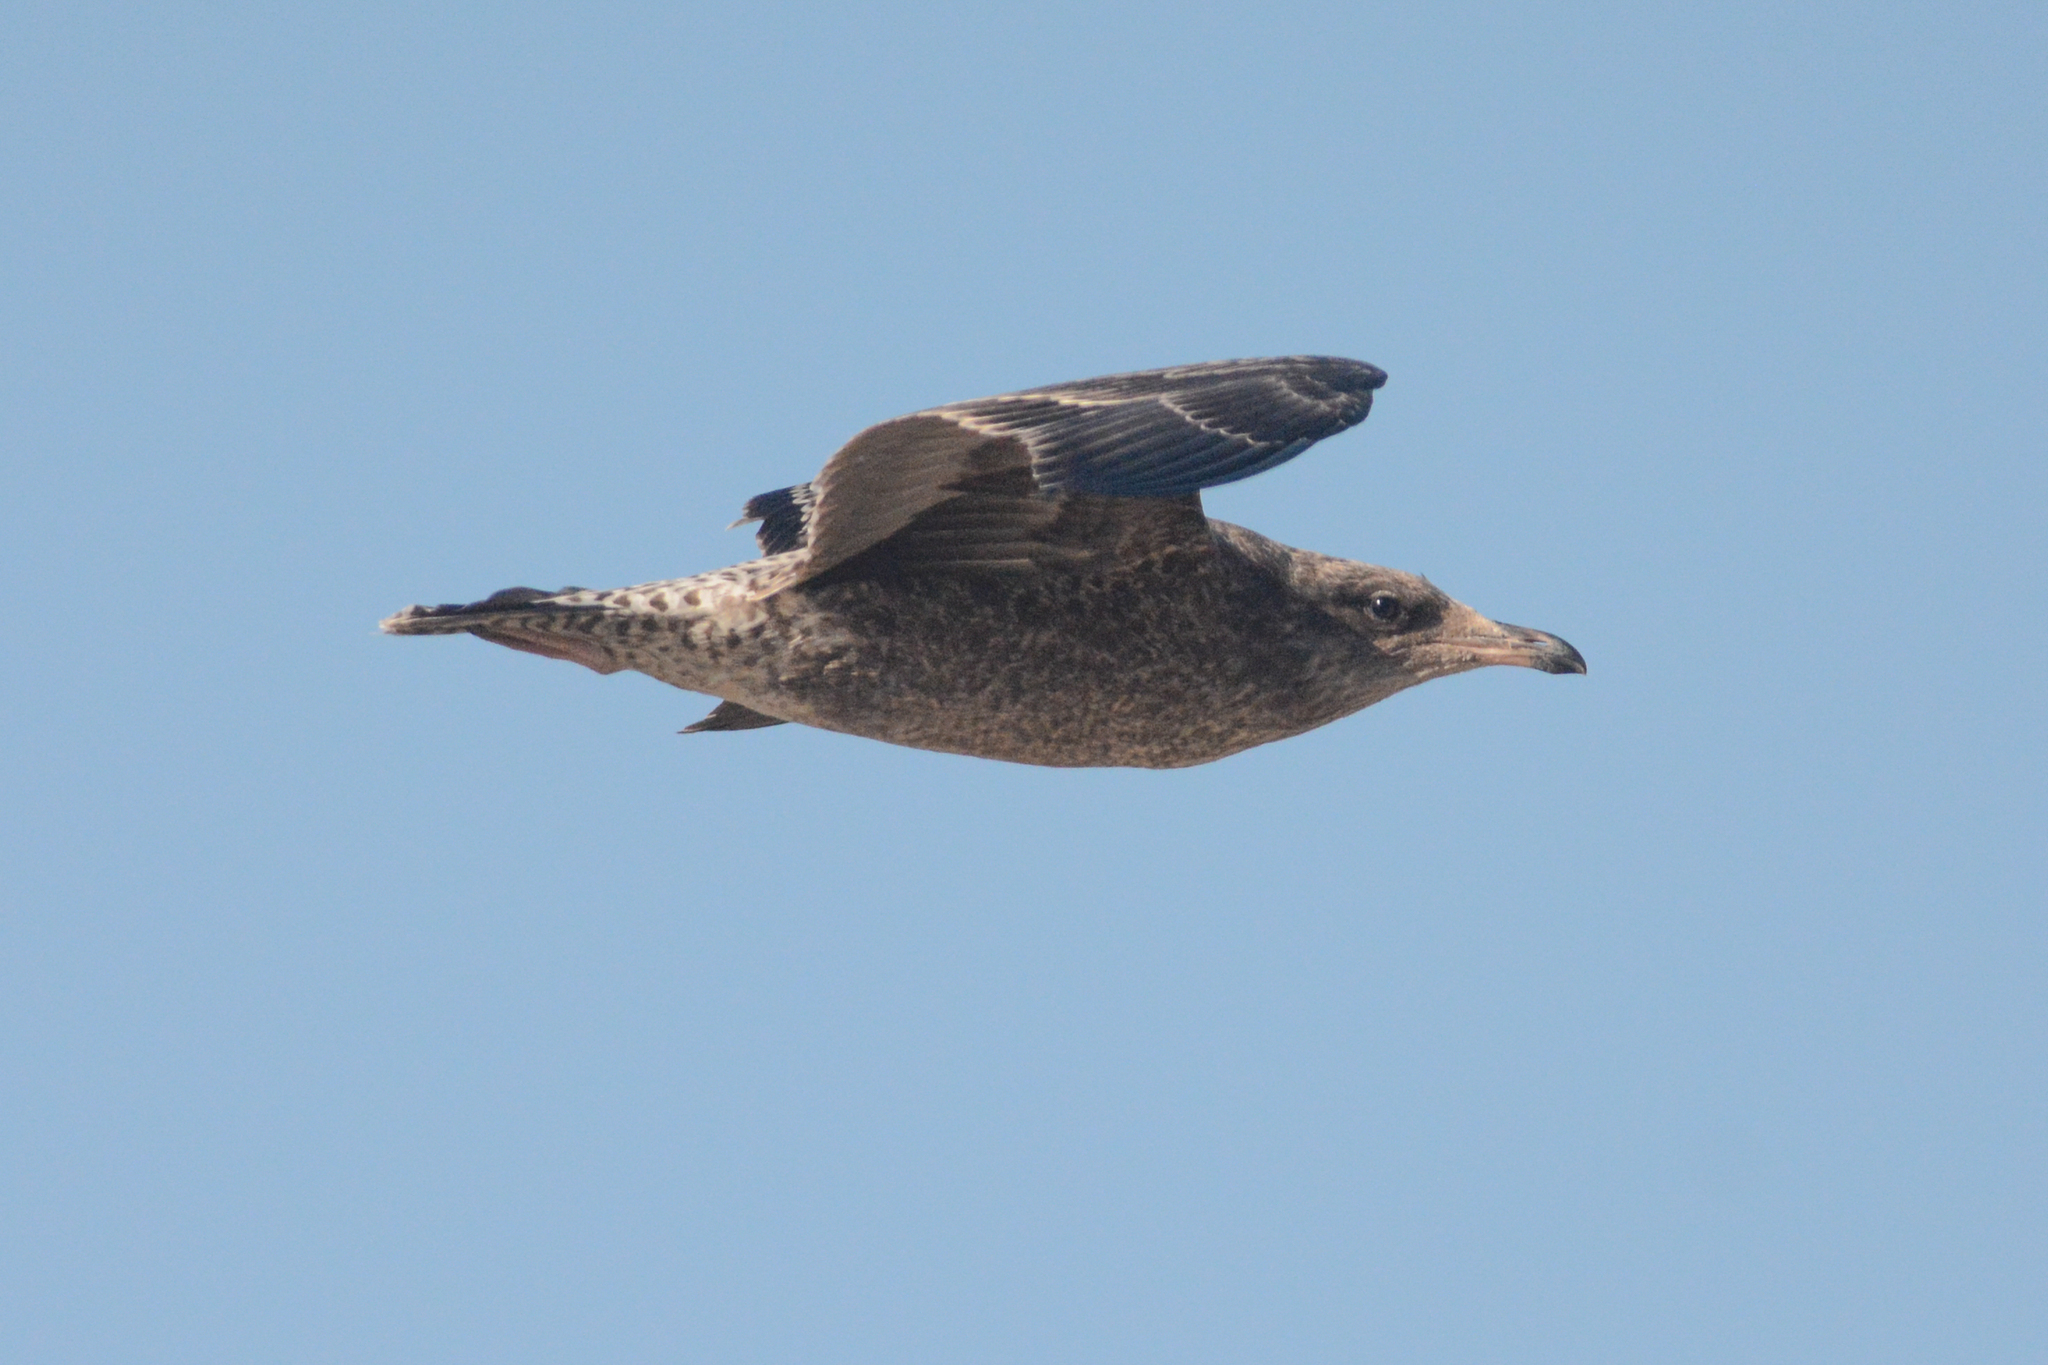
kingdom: Animalia
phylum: Chordata
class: Aves
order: Charadriiformes
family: Laridae
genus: Larus
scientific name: Larus californicus
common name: California gull
